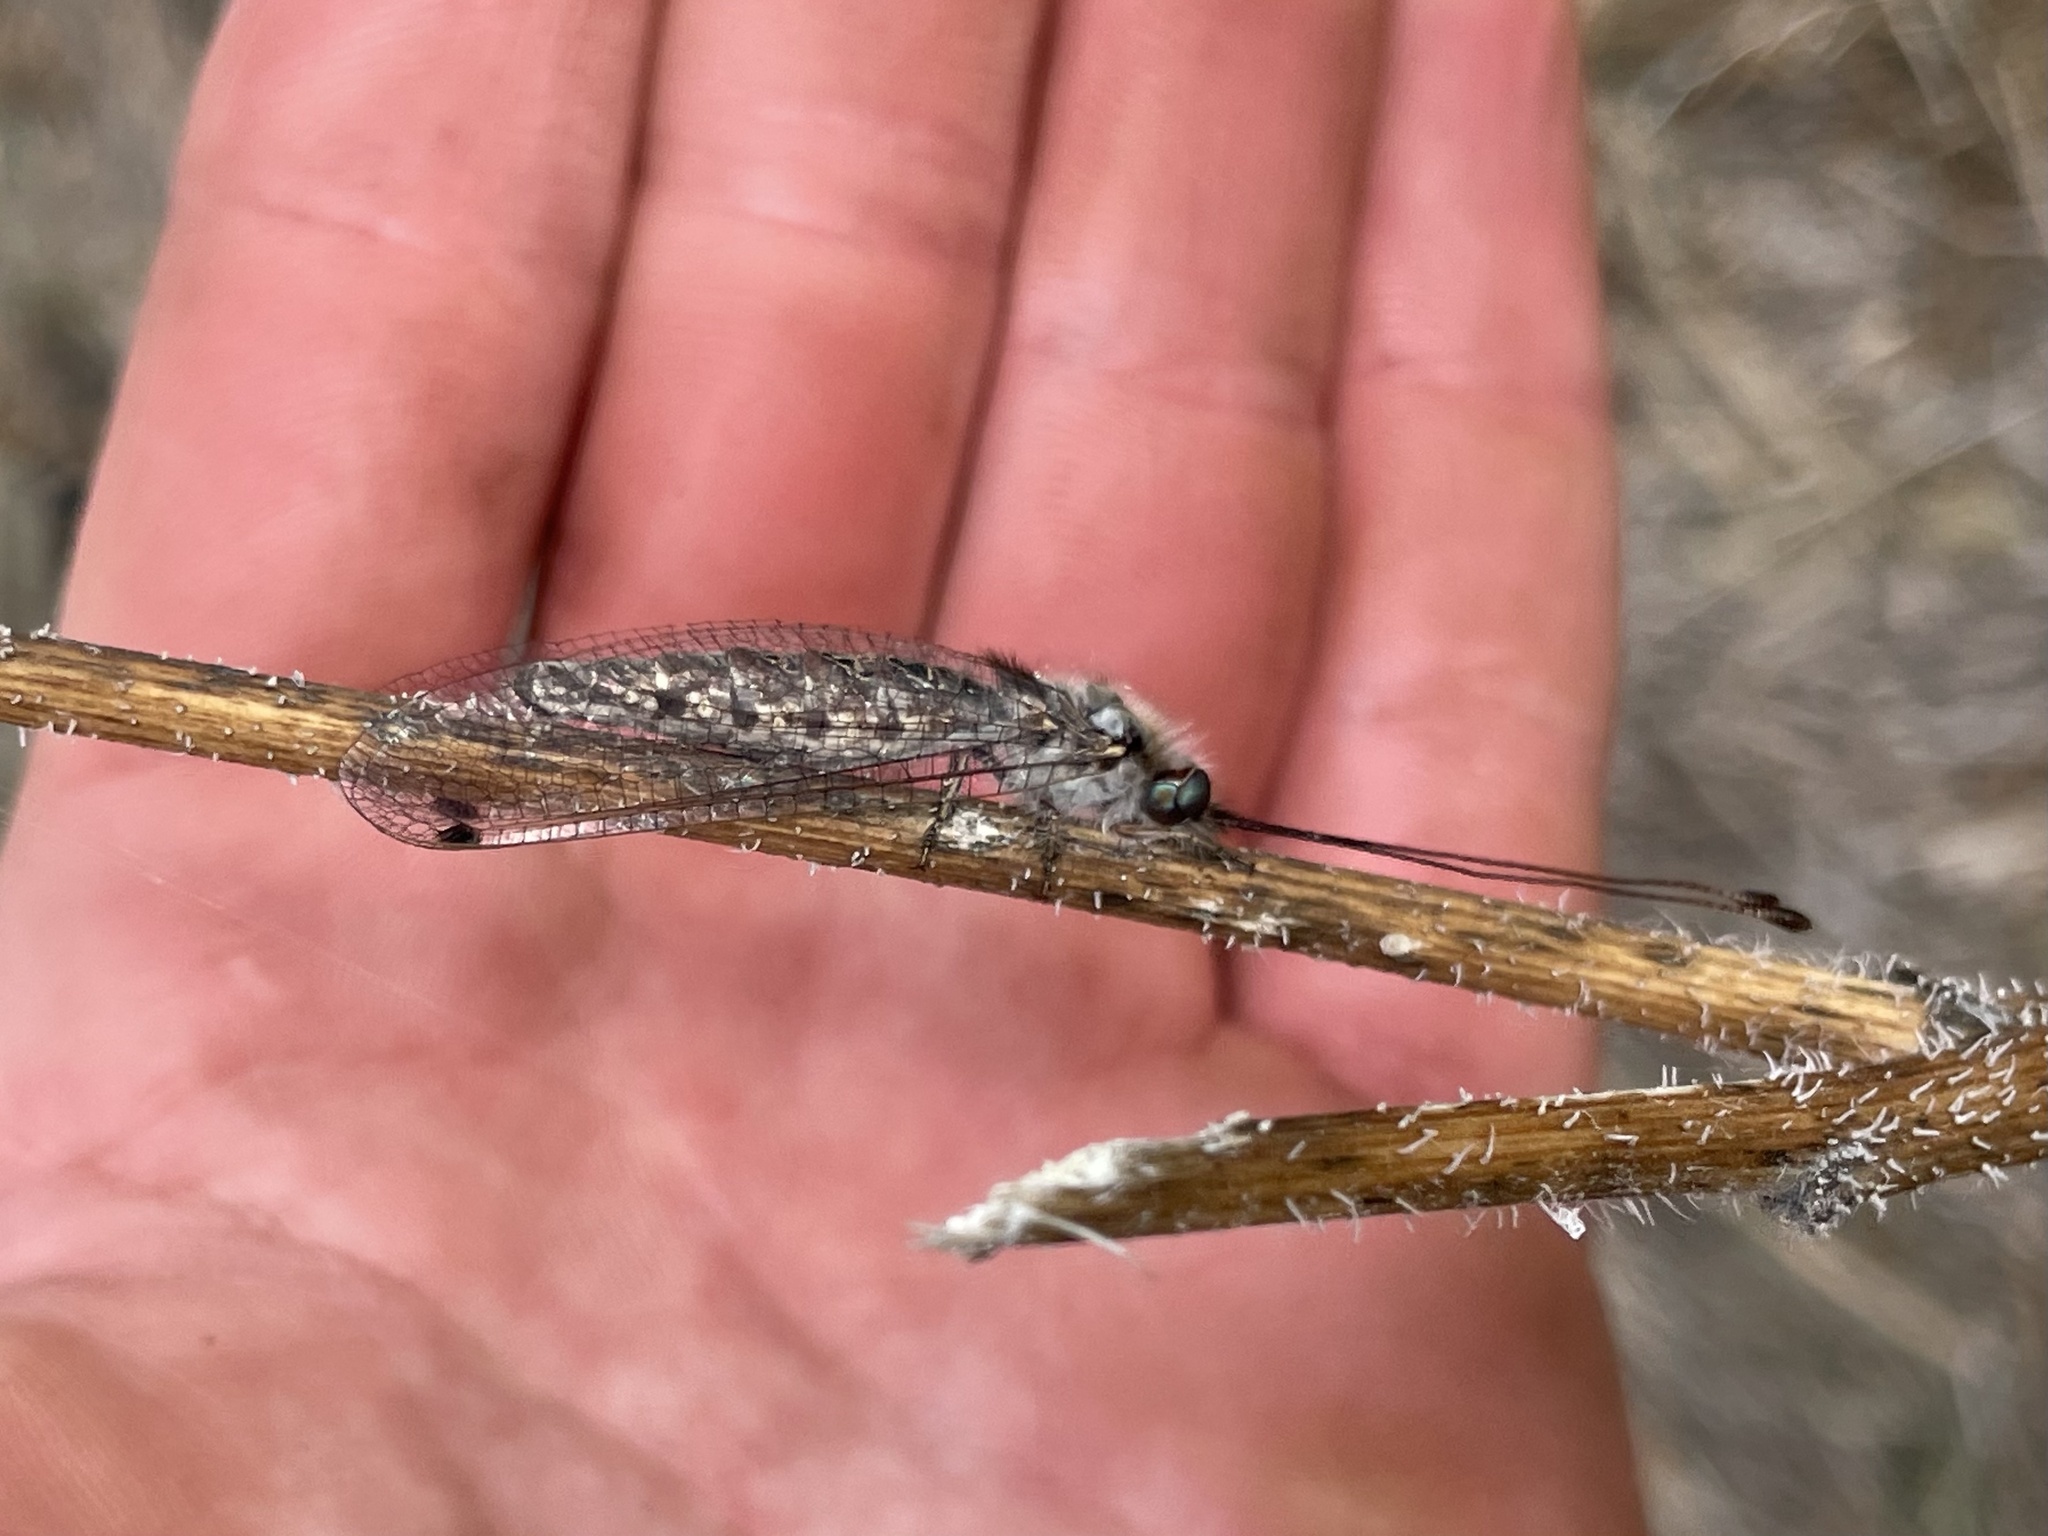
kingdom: Animalia
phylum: Arthropoda
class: Insecta
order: Neuroptera
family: Ascalaphidae
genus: Ululodes
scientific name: Ululodes macleayanus
